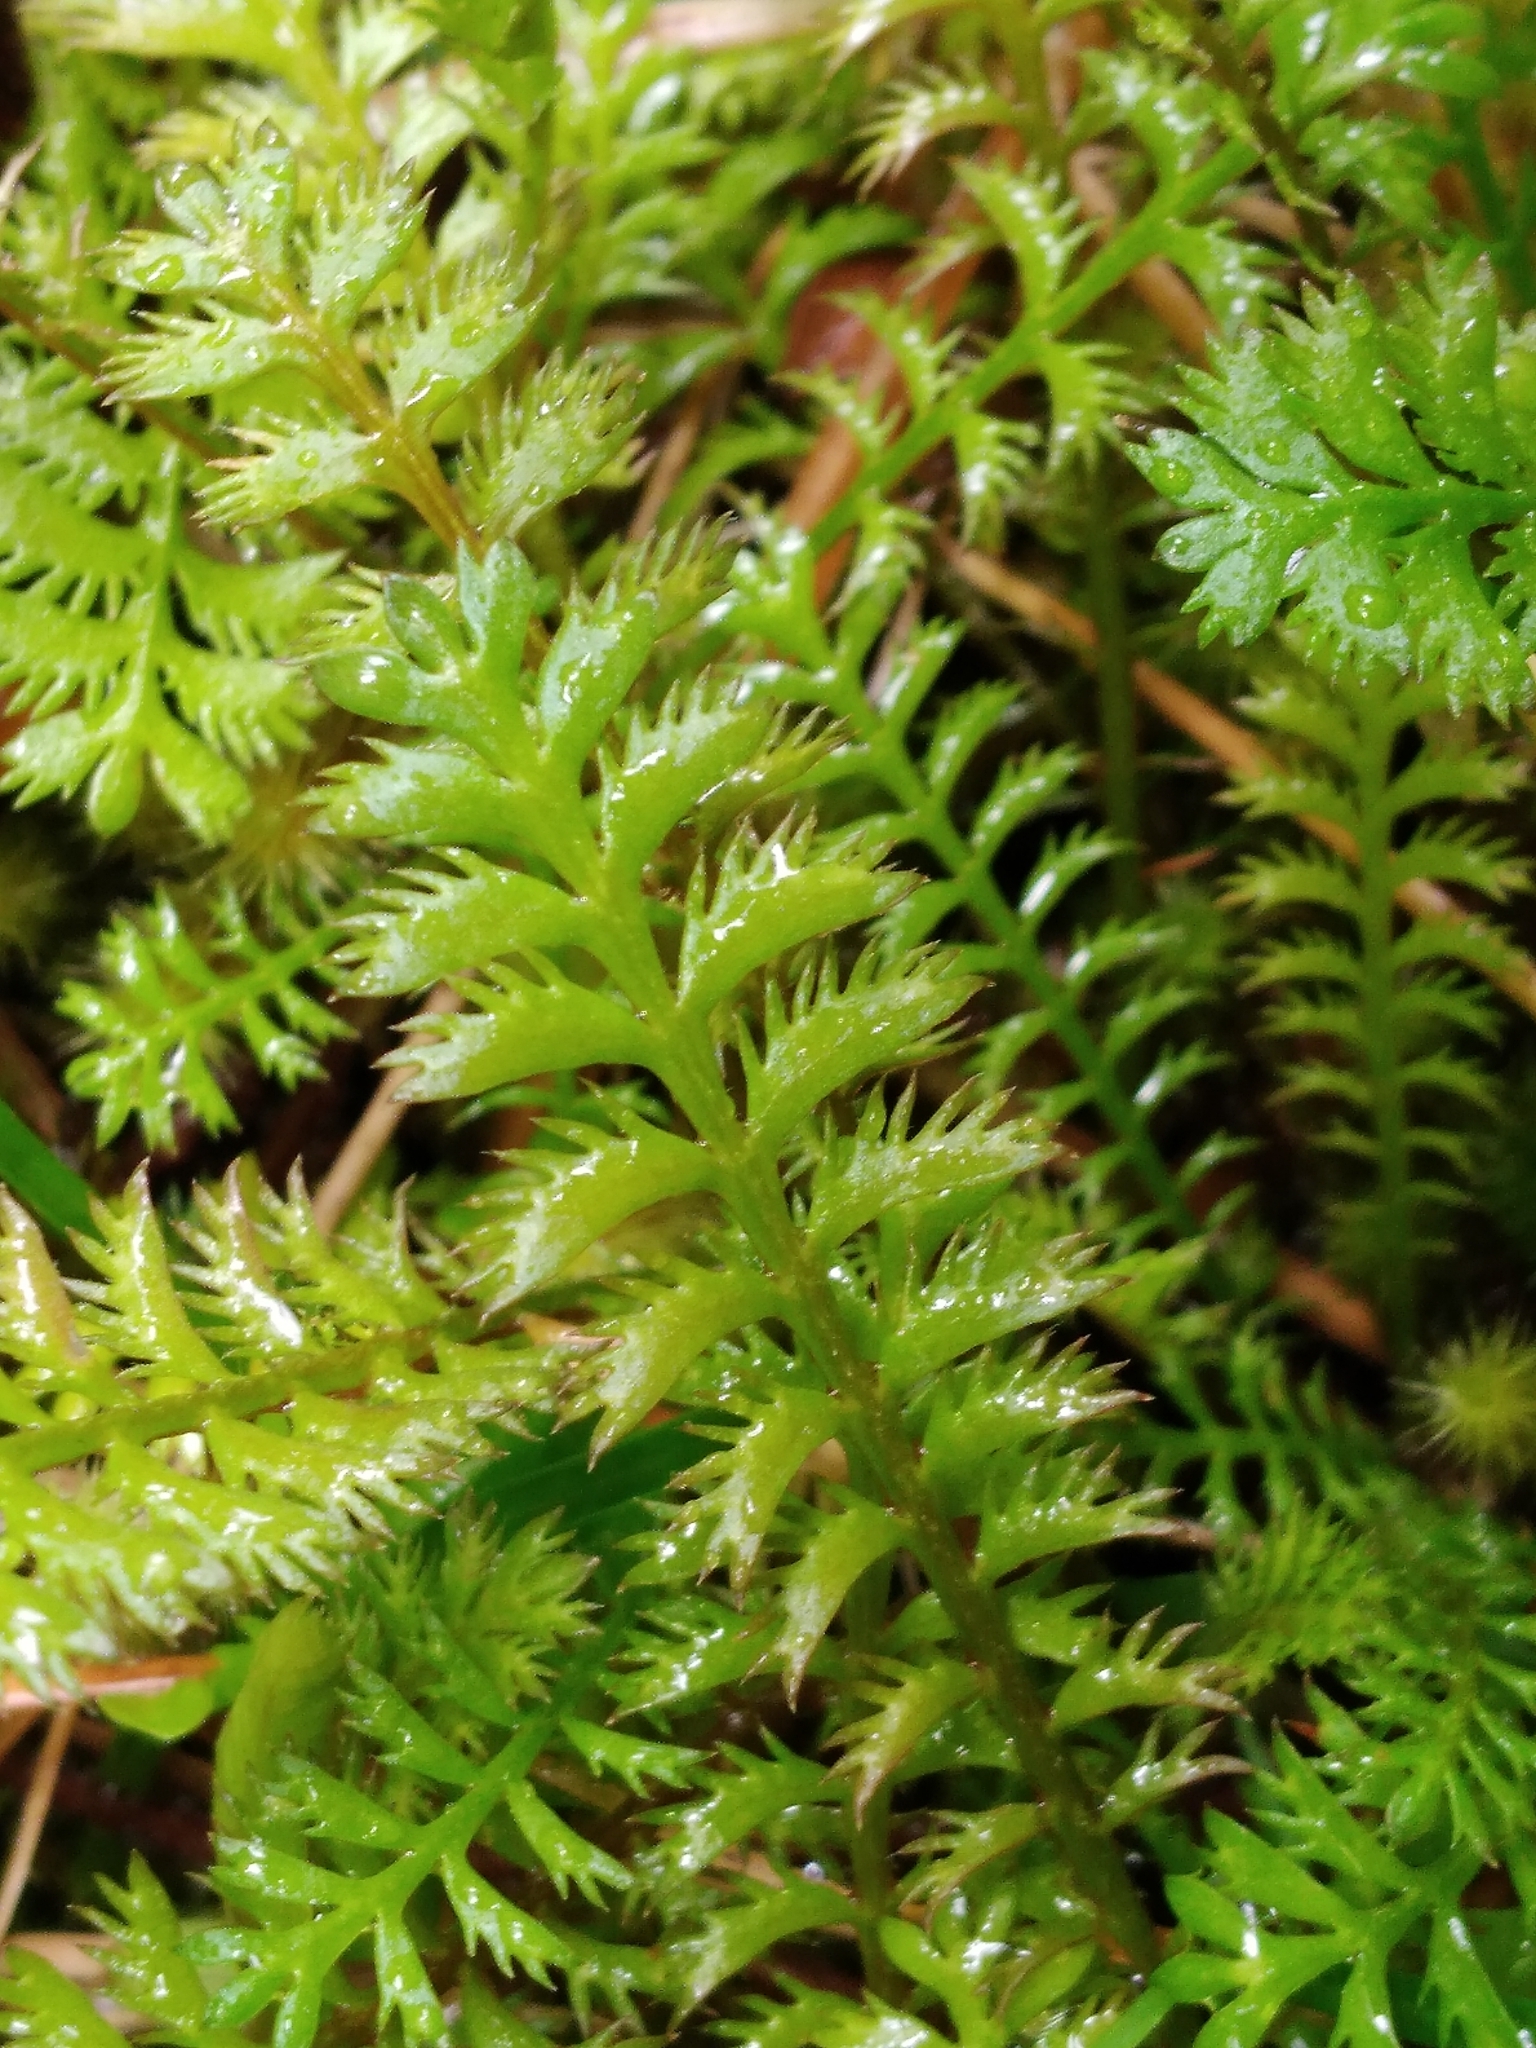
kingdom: Plantae
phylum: Tracheophyta
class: Magnoliopsida
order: Asterales
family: Asteraceae
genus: Leptinella
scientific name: Leptinella squalida
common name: New zealand brass-buttons
